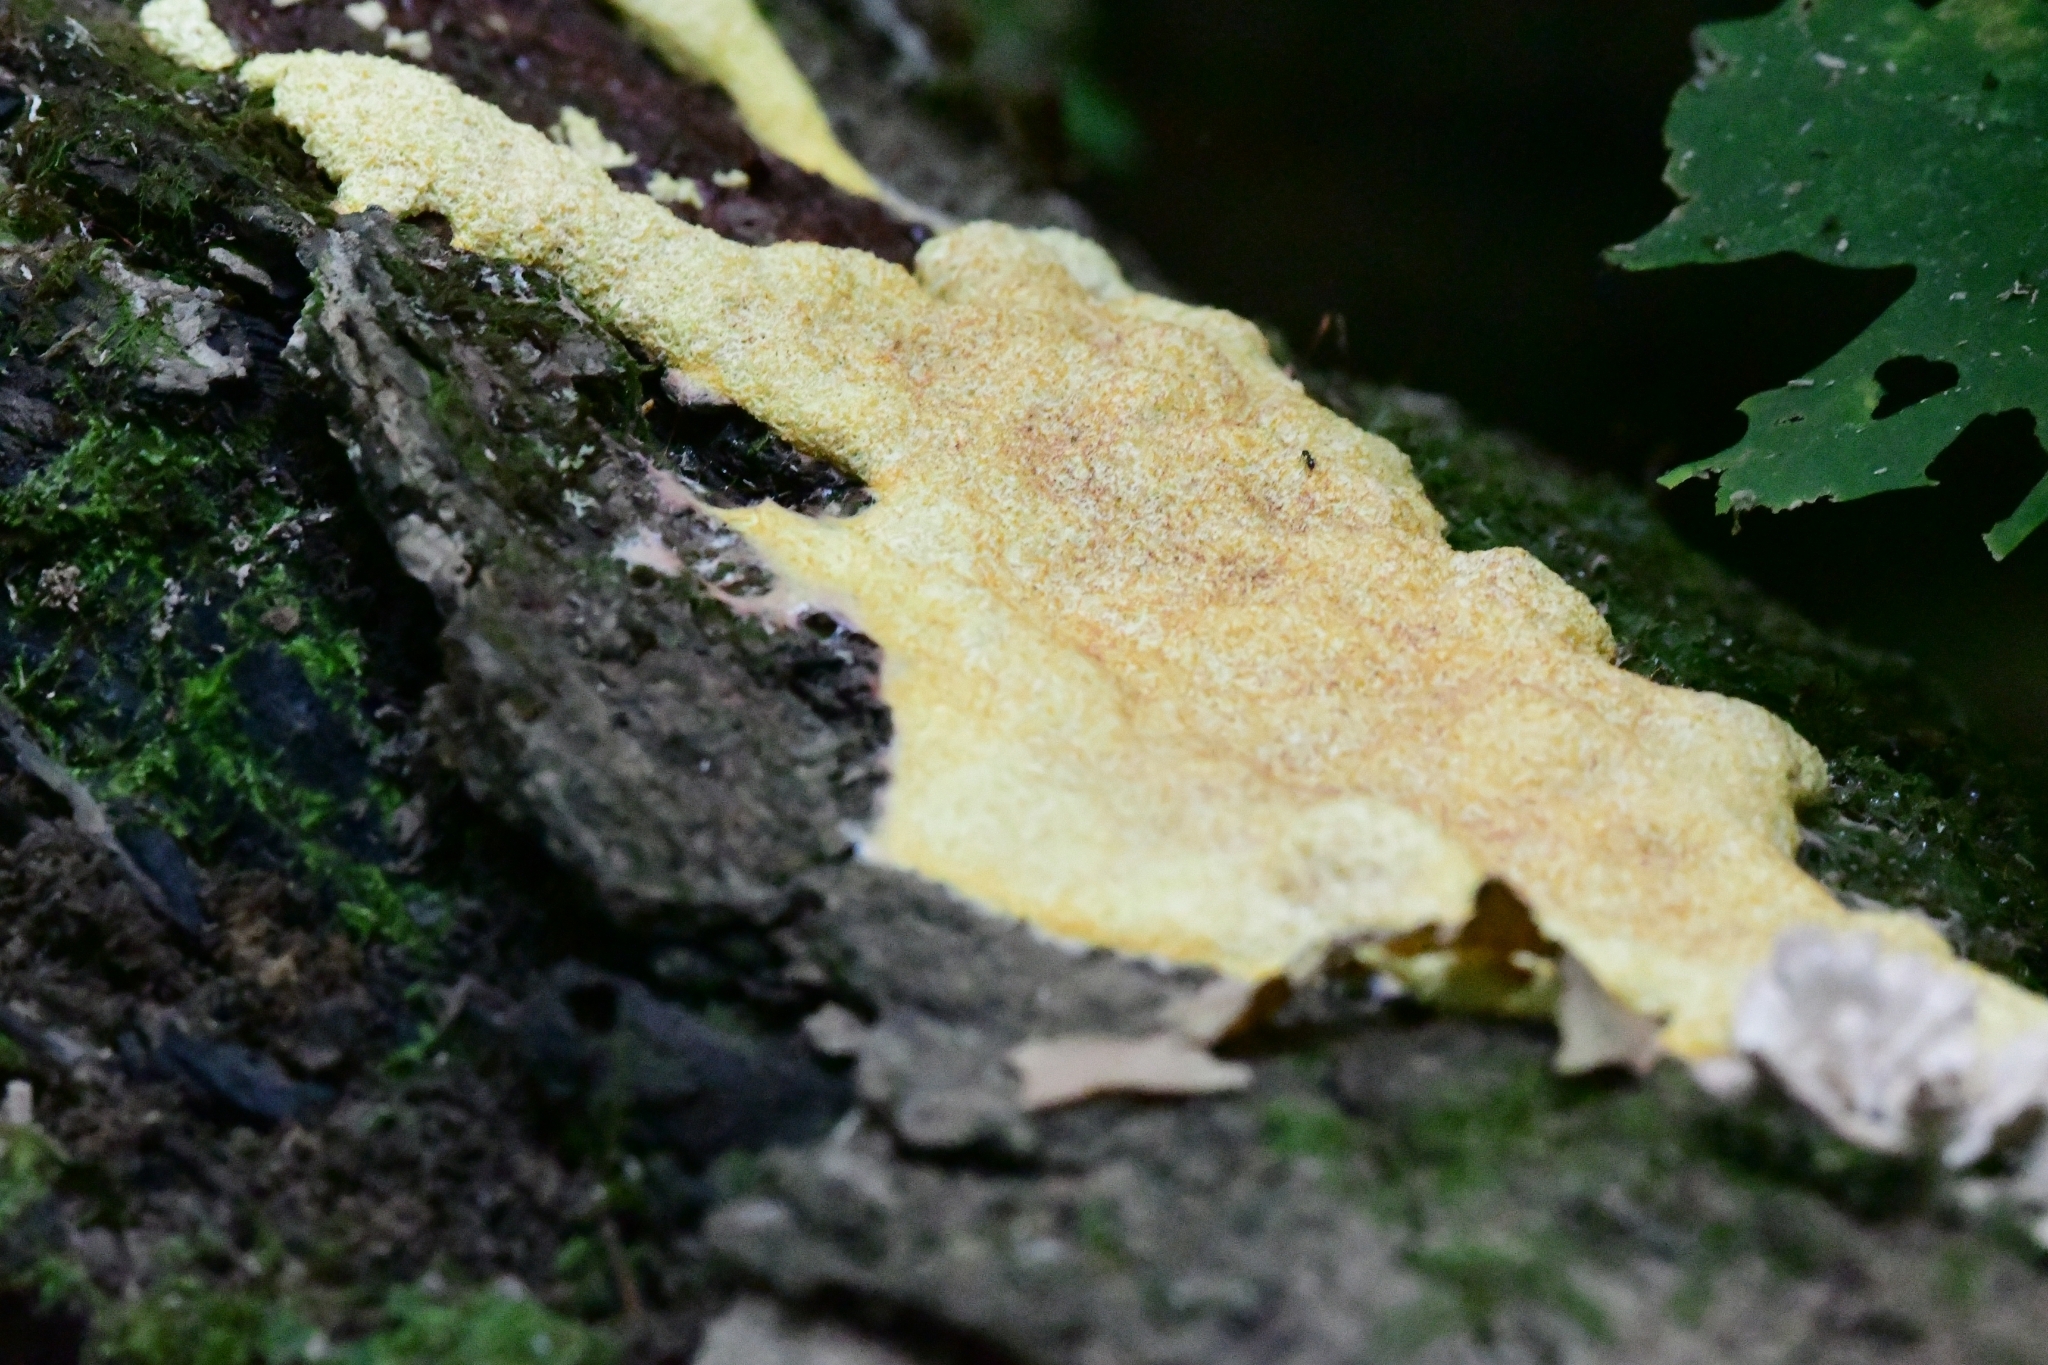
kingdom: Protozoa
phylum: Mycetozoa
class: Myxomycetes
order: Physarales
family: Physaraceae
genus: Fuligo
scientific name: Fuligo septica
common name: Dog vomit slime mold
